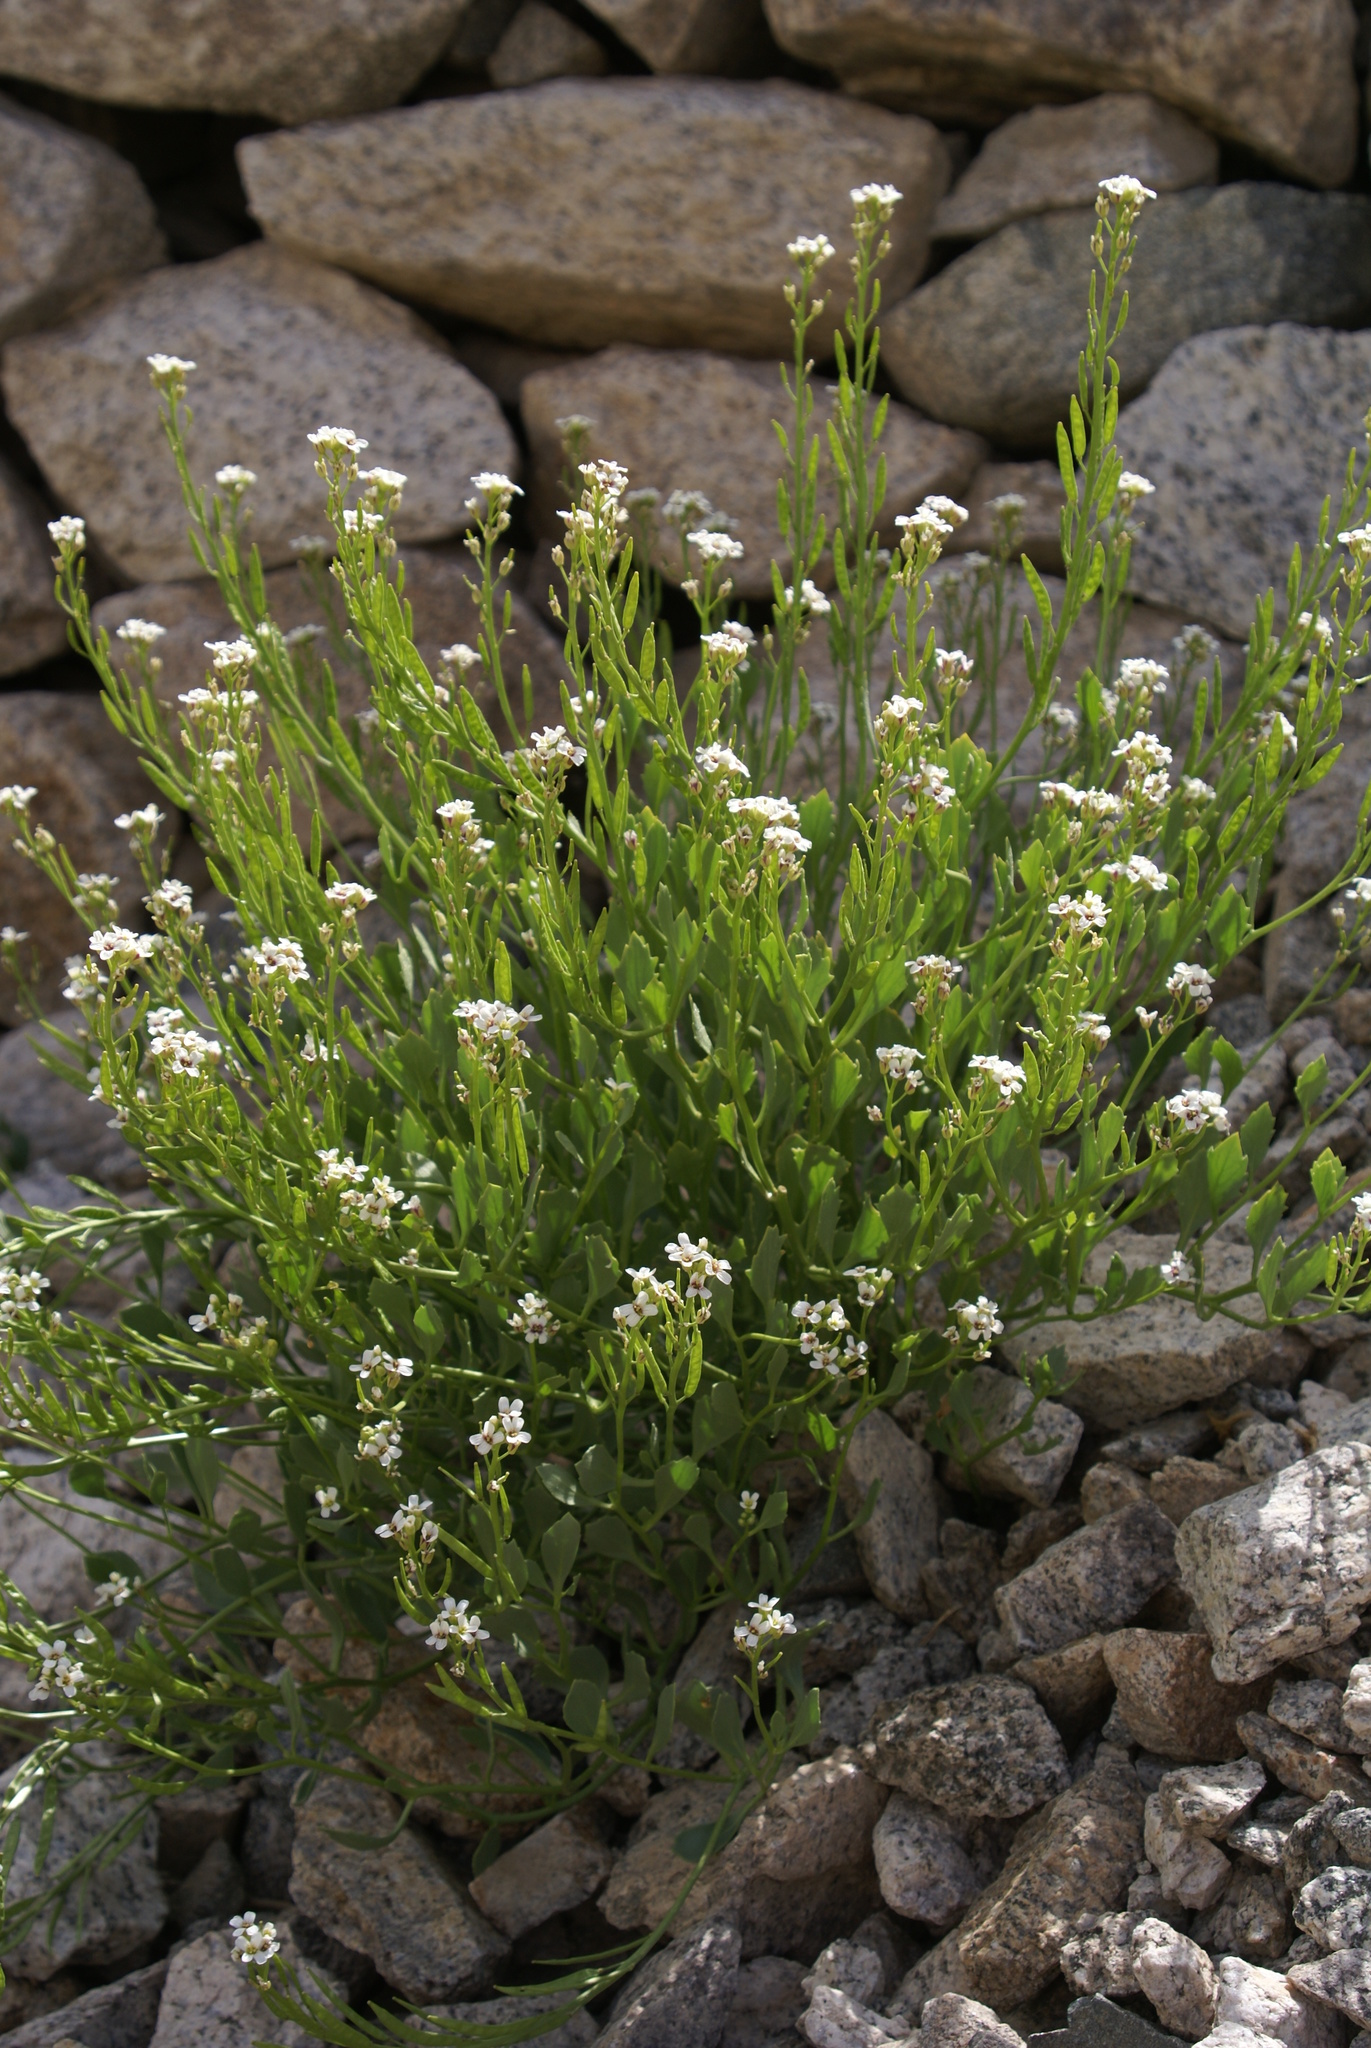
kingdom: Plantae
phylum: Tracheophyta
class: Magnoliopsida
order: Brassicales
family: Brassicaceae
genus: Christolea
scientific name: Christolea crassifolia
